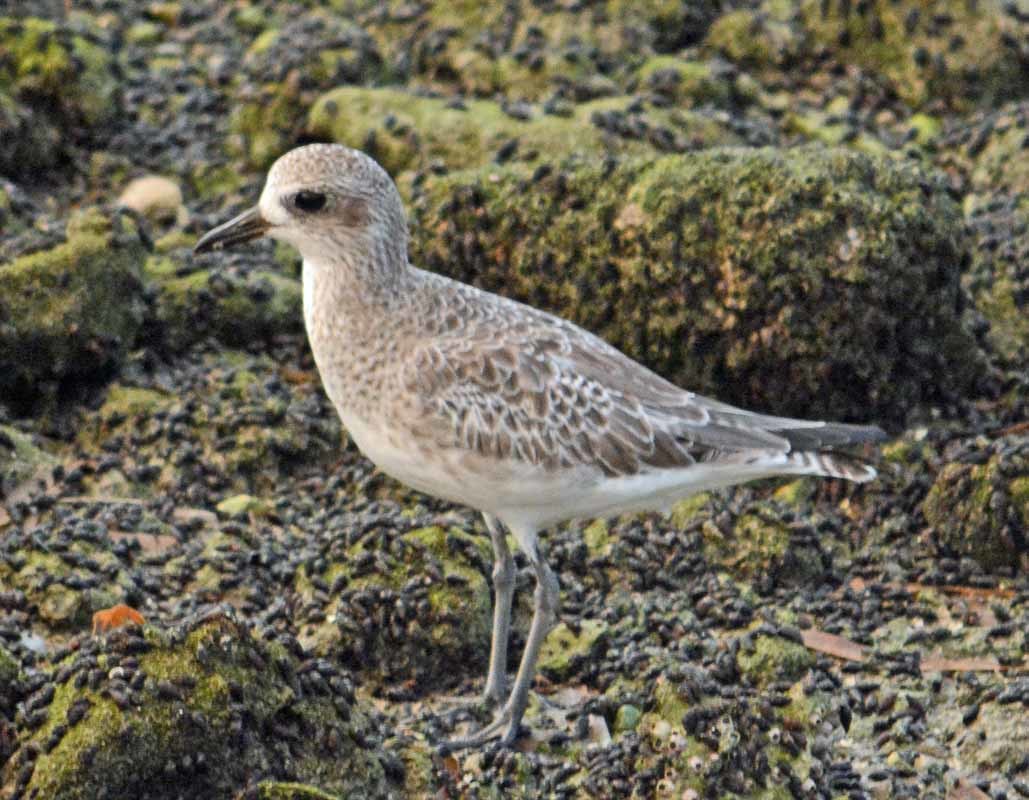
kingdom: Animalia
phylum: Chordata
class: Aves
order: Charadriiformes
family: Charadriidae
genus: Pluvialis
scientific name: Pluvialis squatarola
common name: Grey plover
